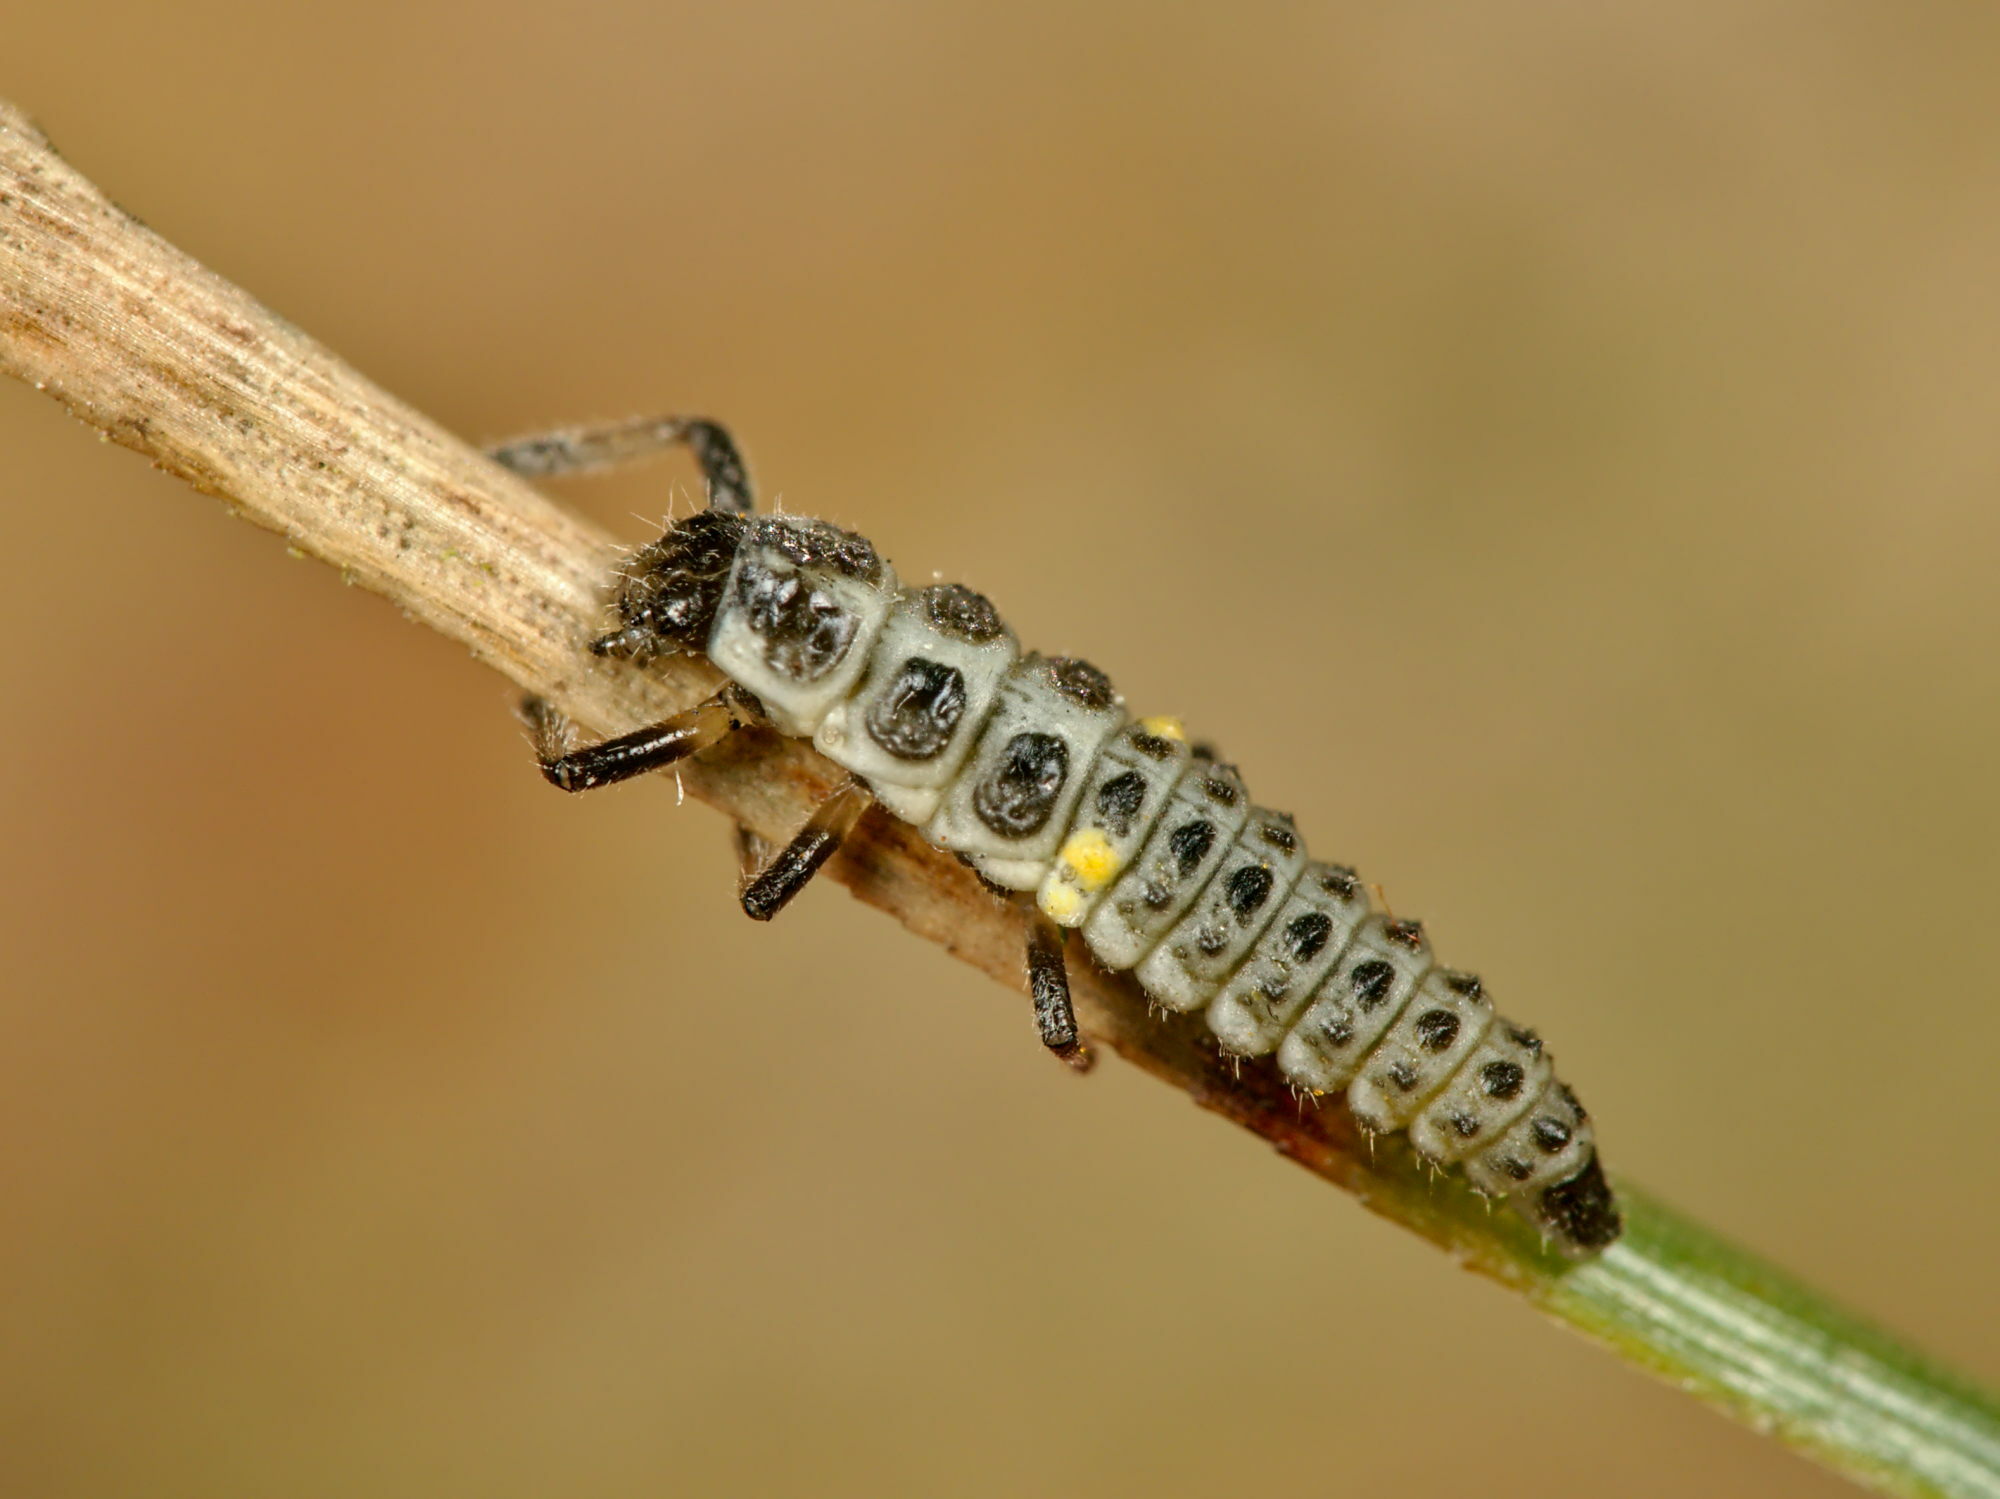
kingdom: Animalia
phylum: Arthropoda
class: Insecta
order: Coleoptera
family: Coccinellidae
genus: Myrrha
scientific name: Myrrha octodecimguttata
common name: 18-spot ladybird
